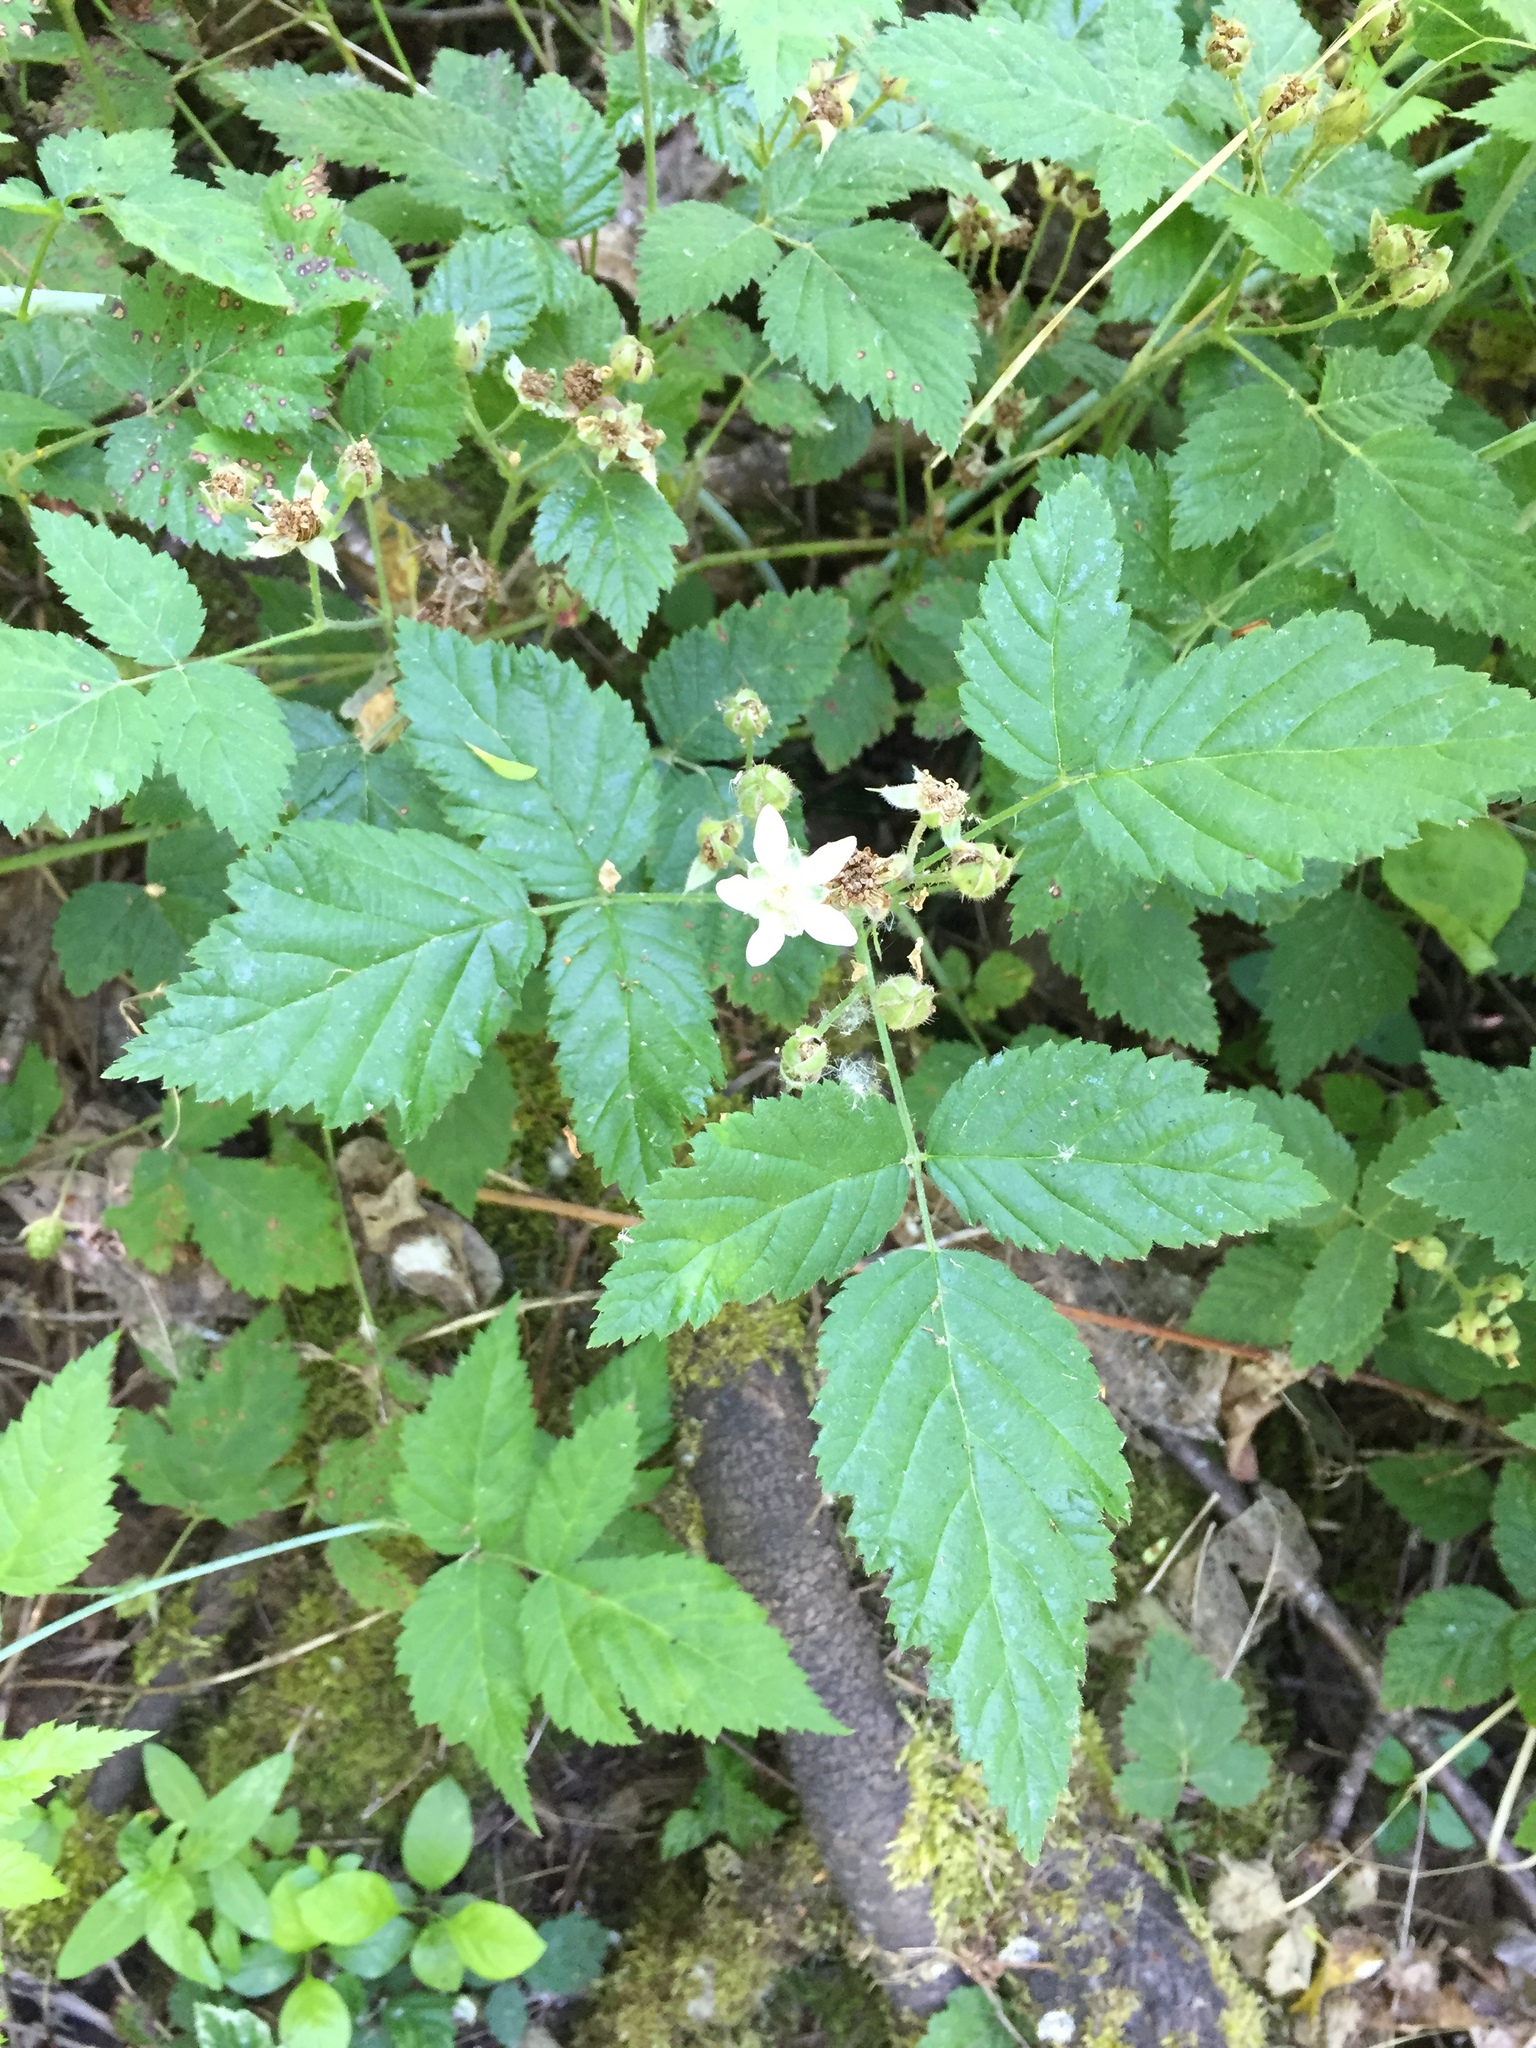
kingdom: Plantae
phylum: Tracheophyta
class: Magnoliopsida
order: Rosales
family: Rosaceae
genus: Rubus
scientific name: Rubus ursinus
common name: Pacific blackberry
